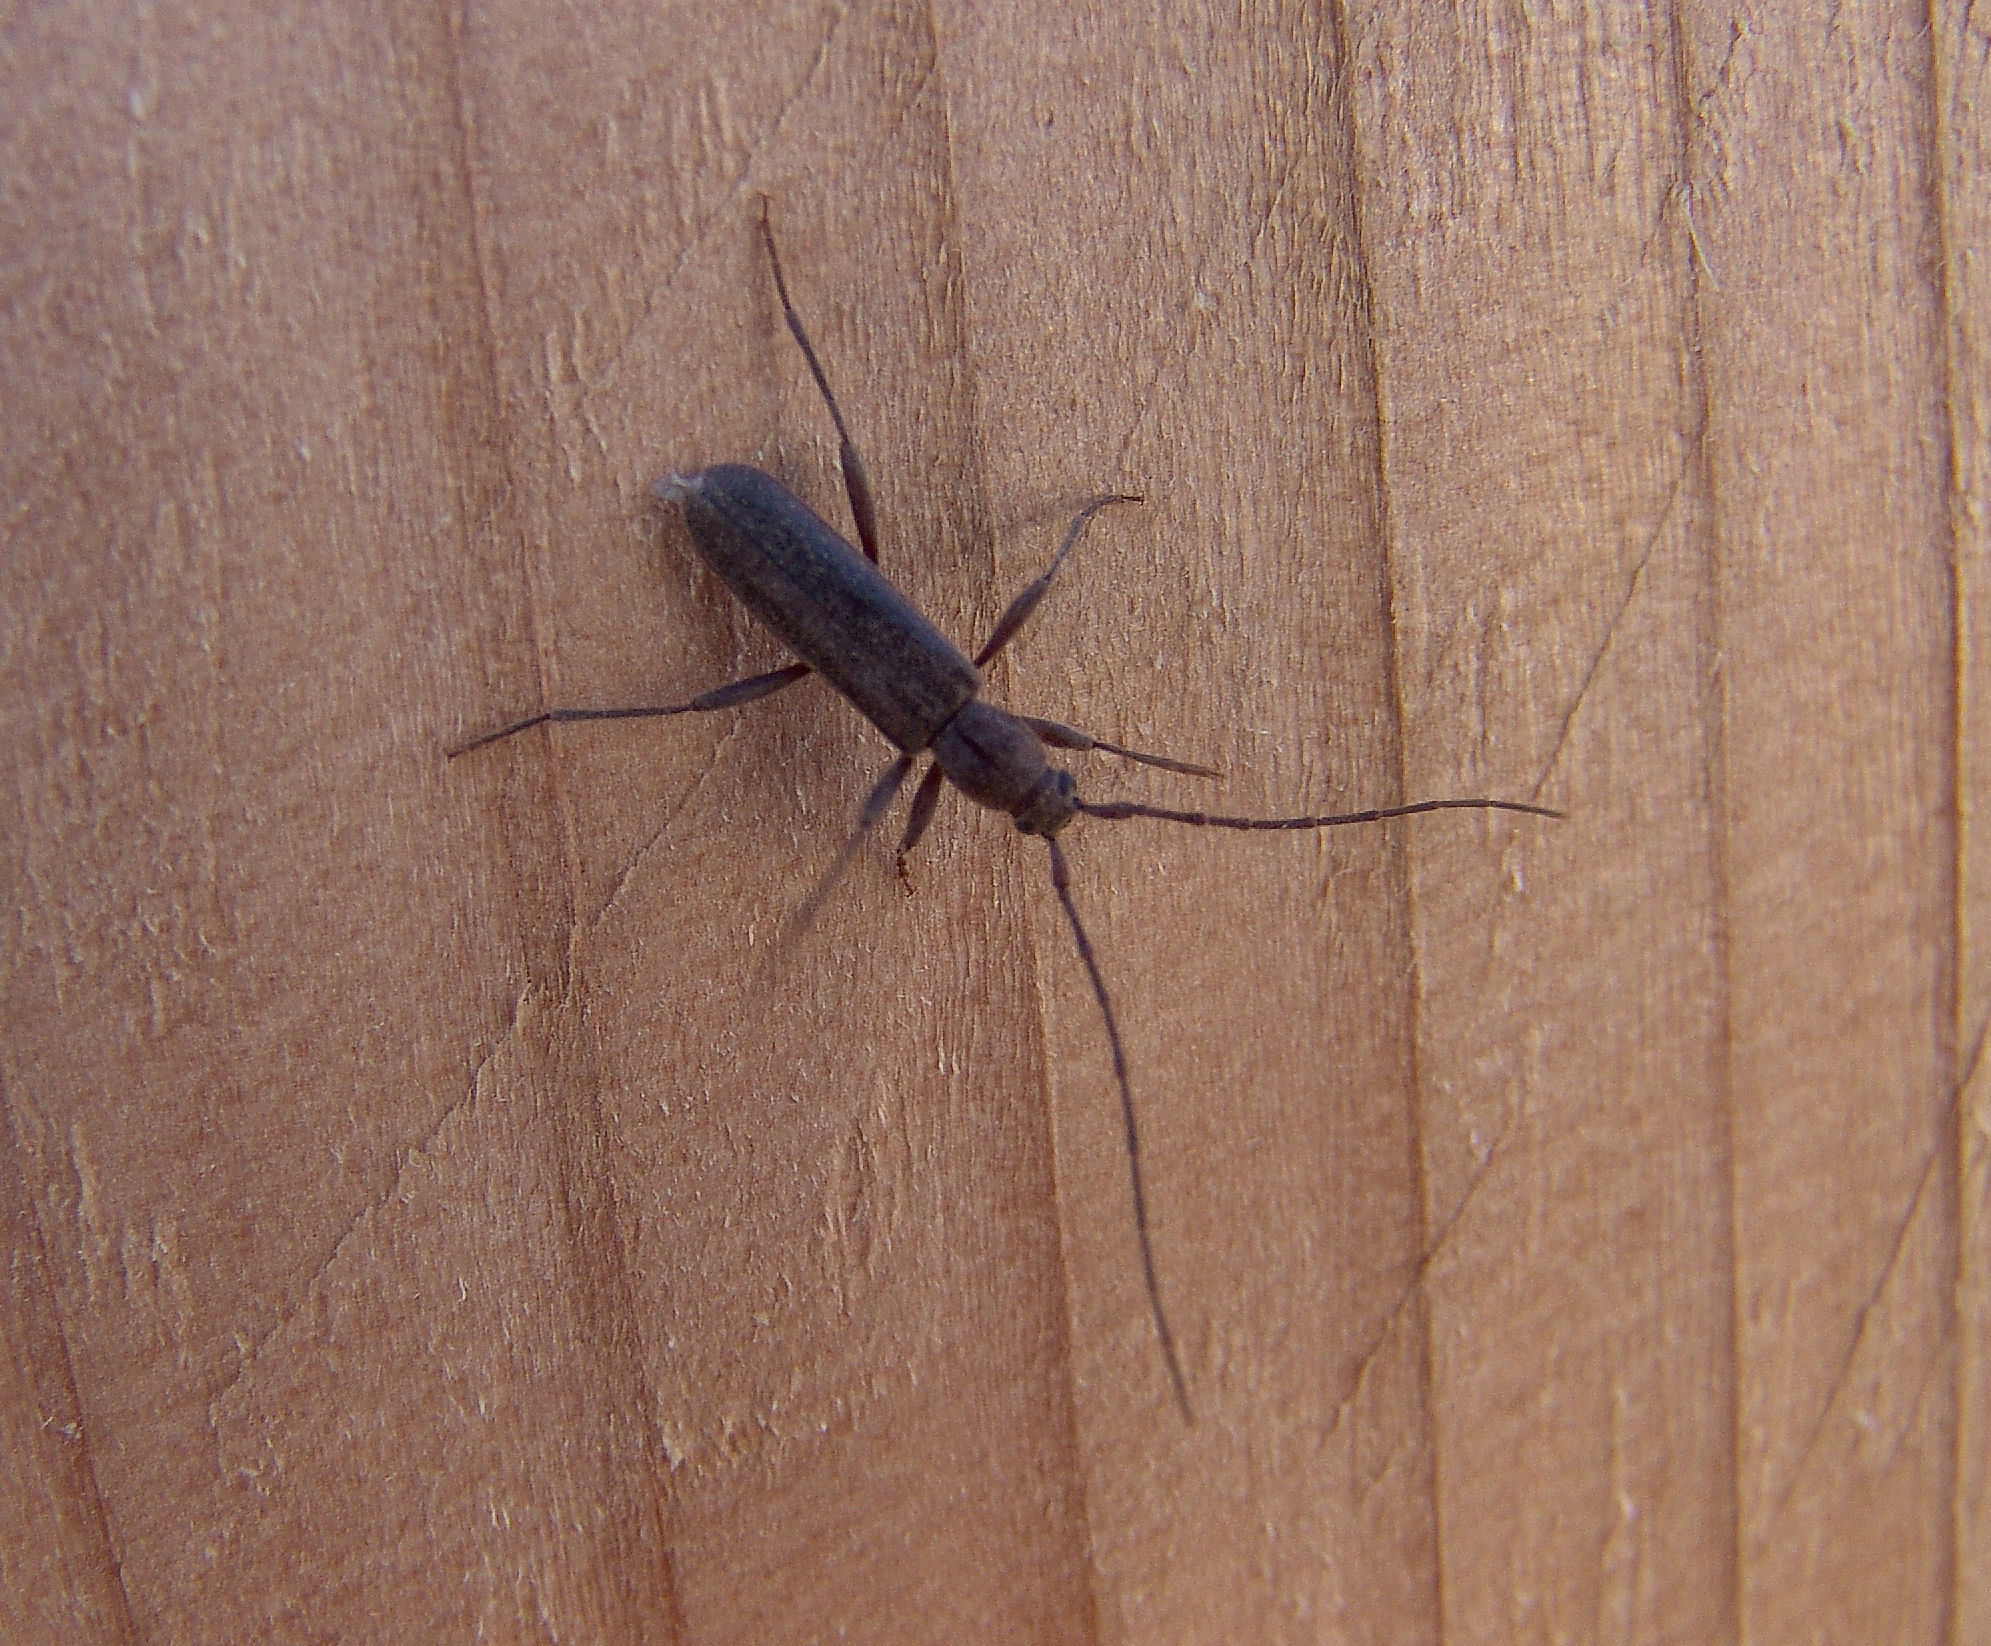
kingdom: Animalia
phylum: Arthropoda
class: Insecta
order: Coleoptera
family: Cerambycidae
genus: Haplidus
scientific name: Haplidus testaceus
